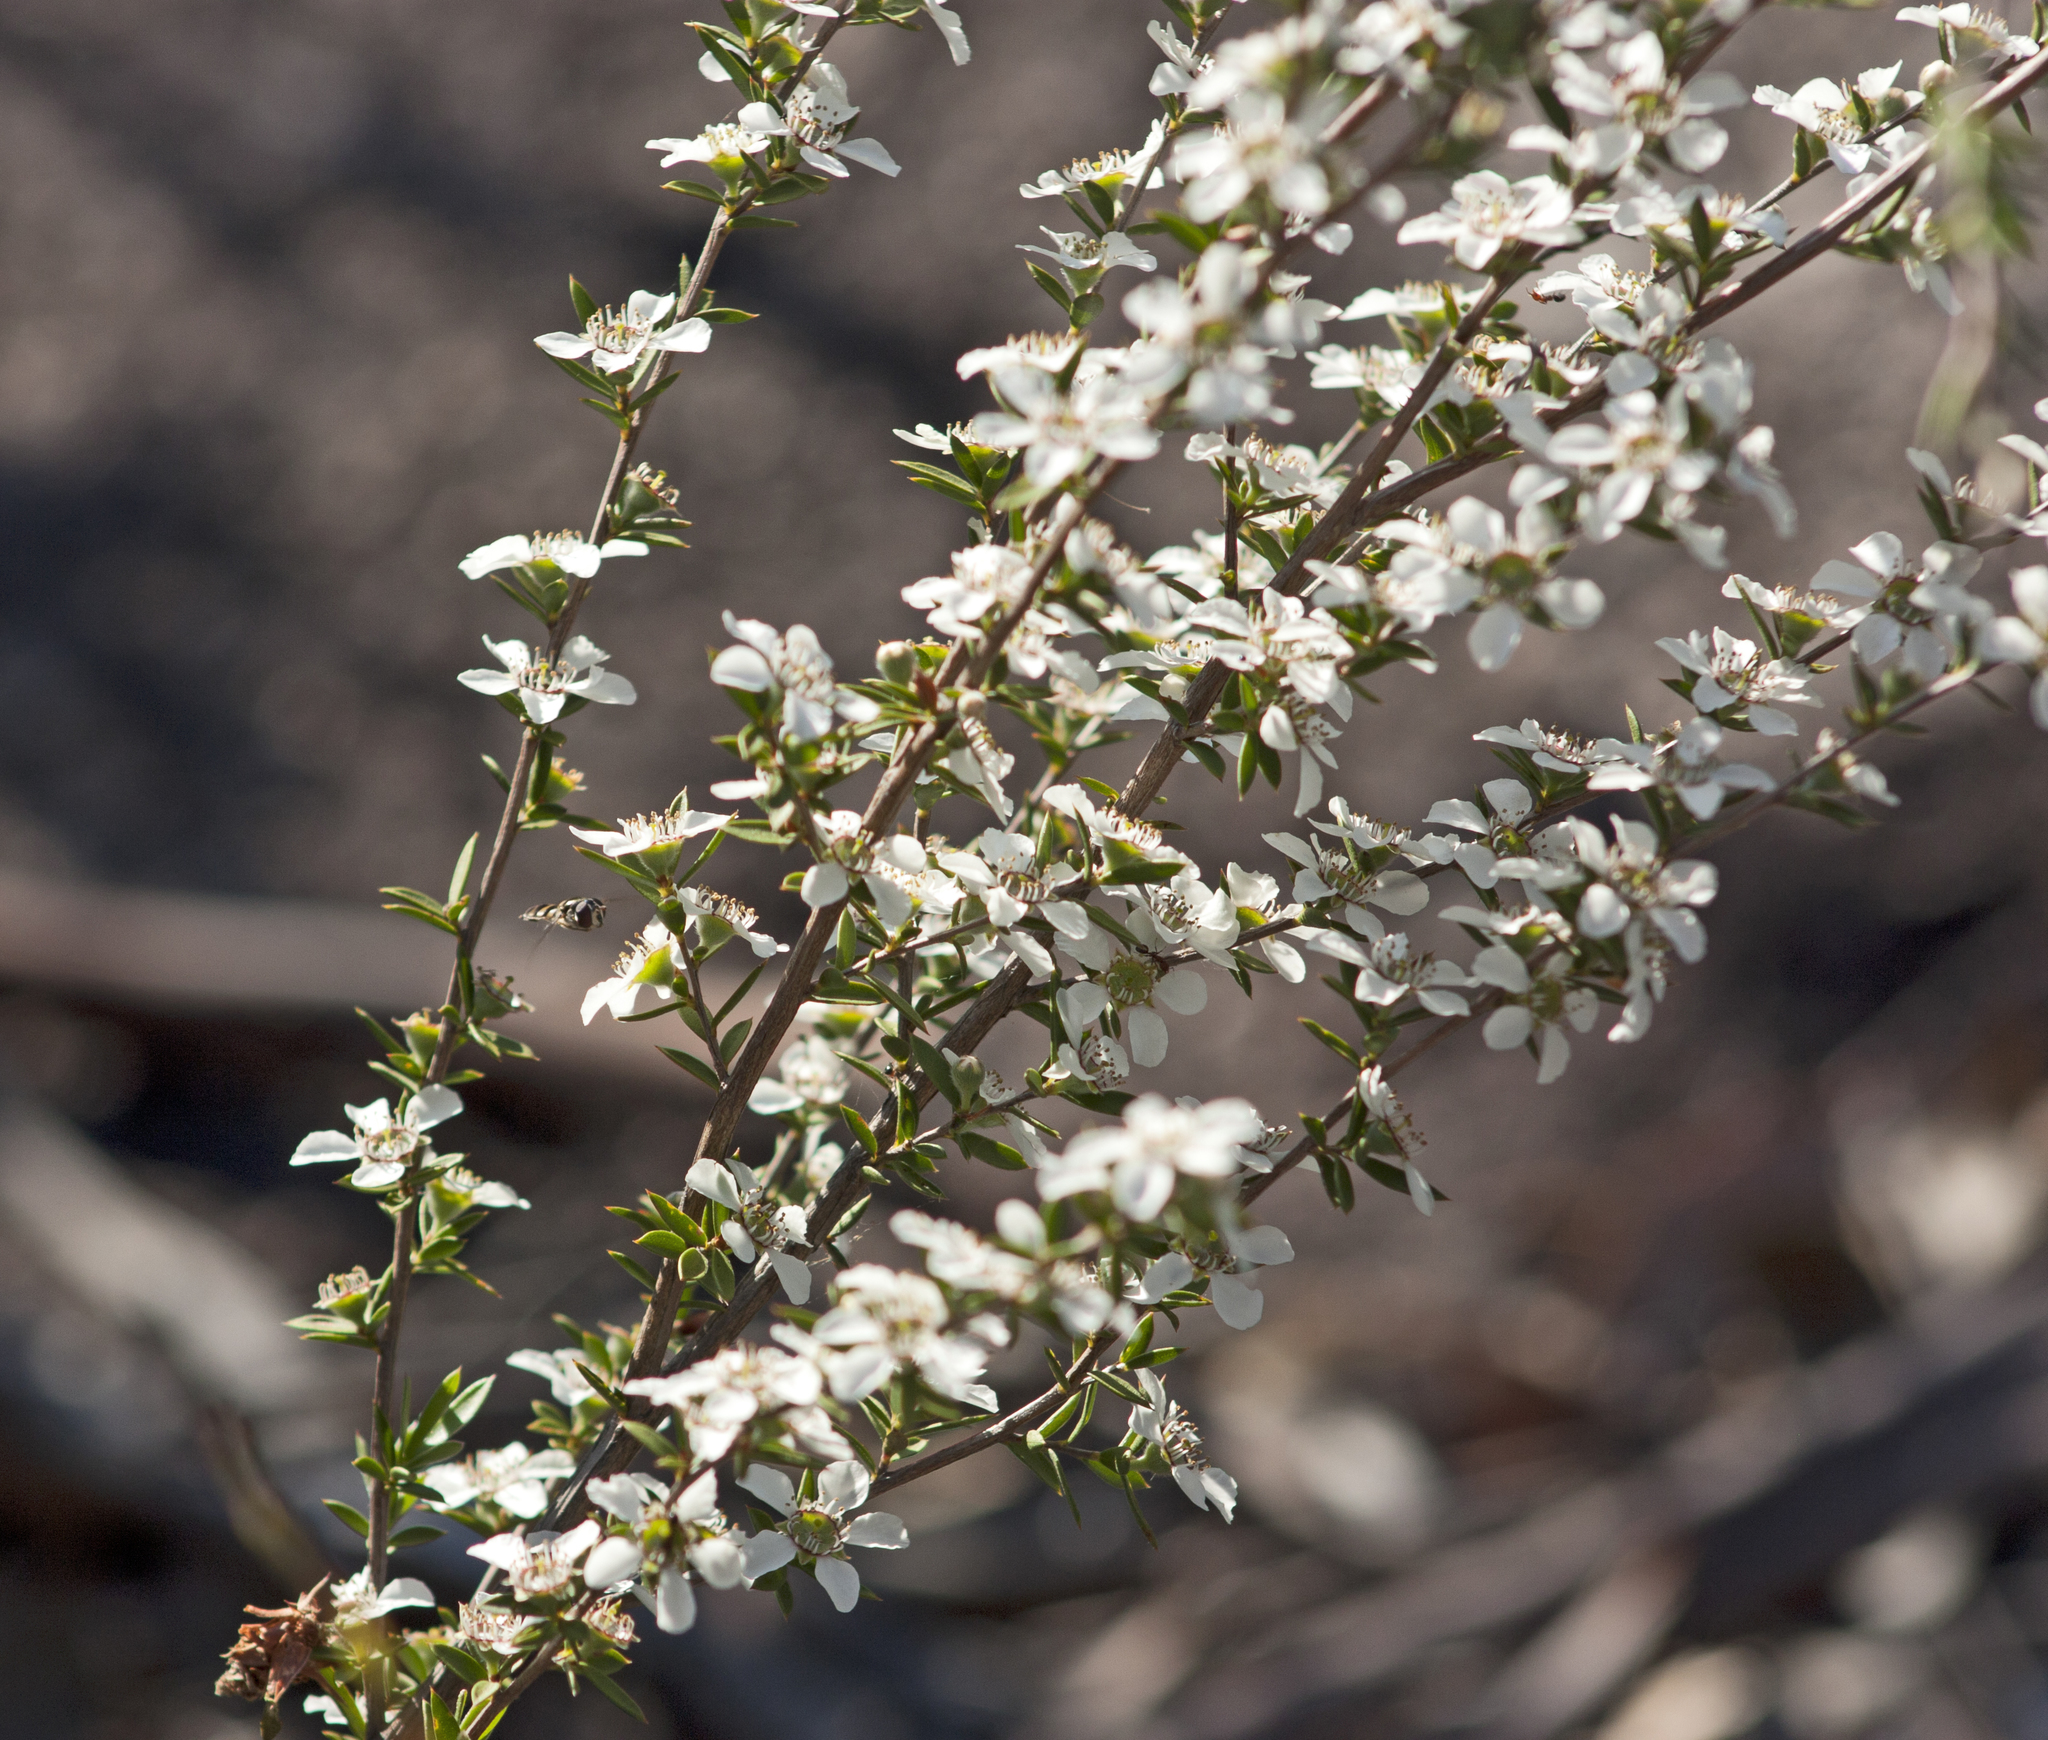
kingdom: Plantae
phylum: Tracheophyta
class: Magnoliopsida
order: Myrtales
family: Myrtaceae
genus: Leptospermum
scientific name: Leptospermum microcarpum
